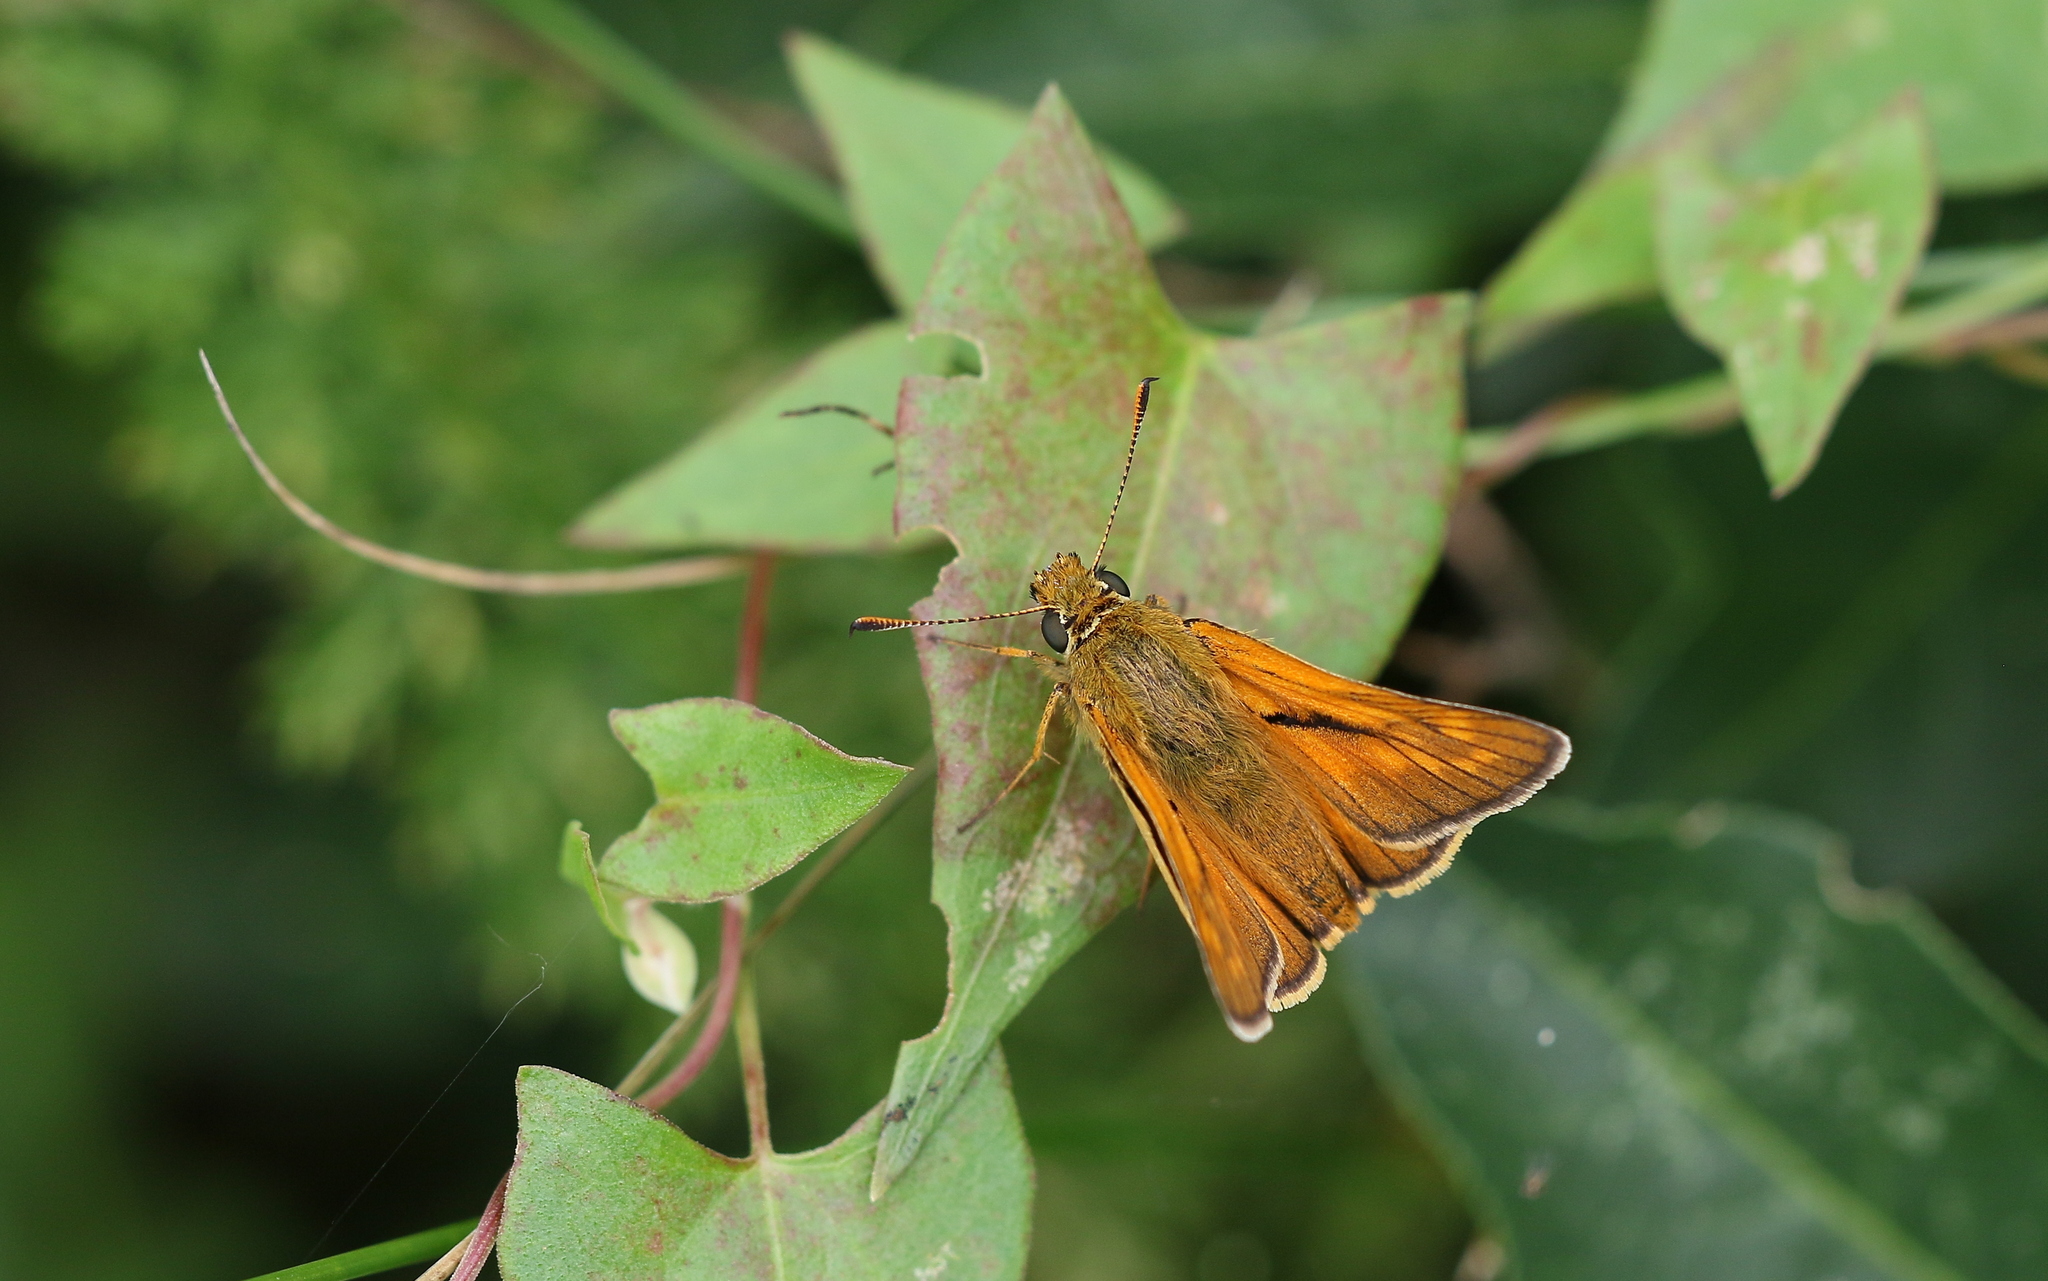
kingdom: Animalia
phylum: Arthropoda
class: Insecta
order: Lepidoptera
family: Hesperiidae
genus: Ochlodes
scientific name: Ochlodes venata
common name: Large skipper
